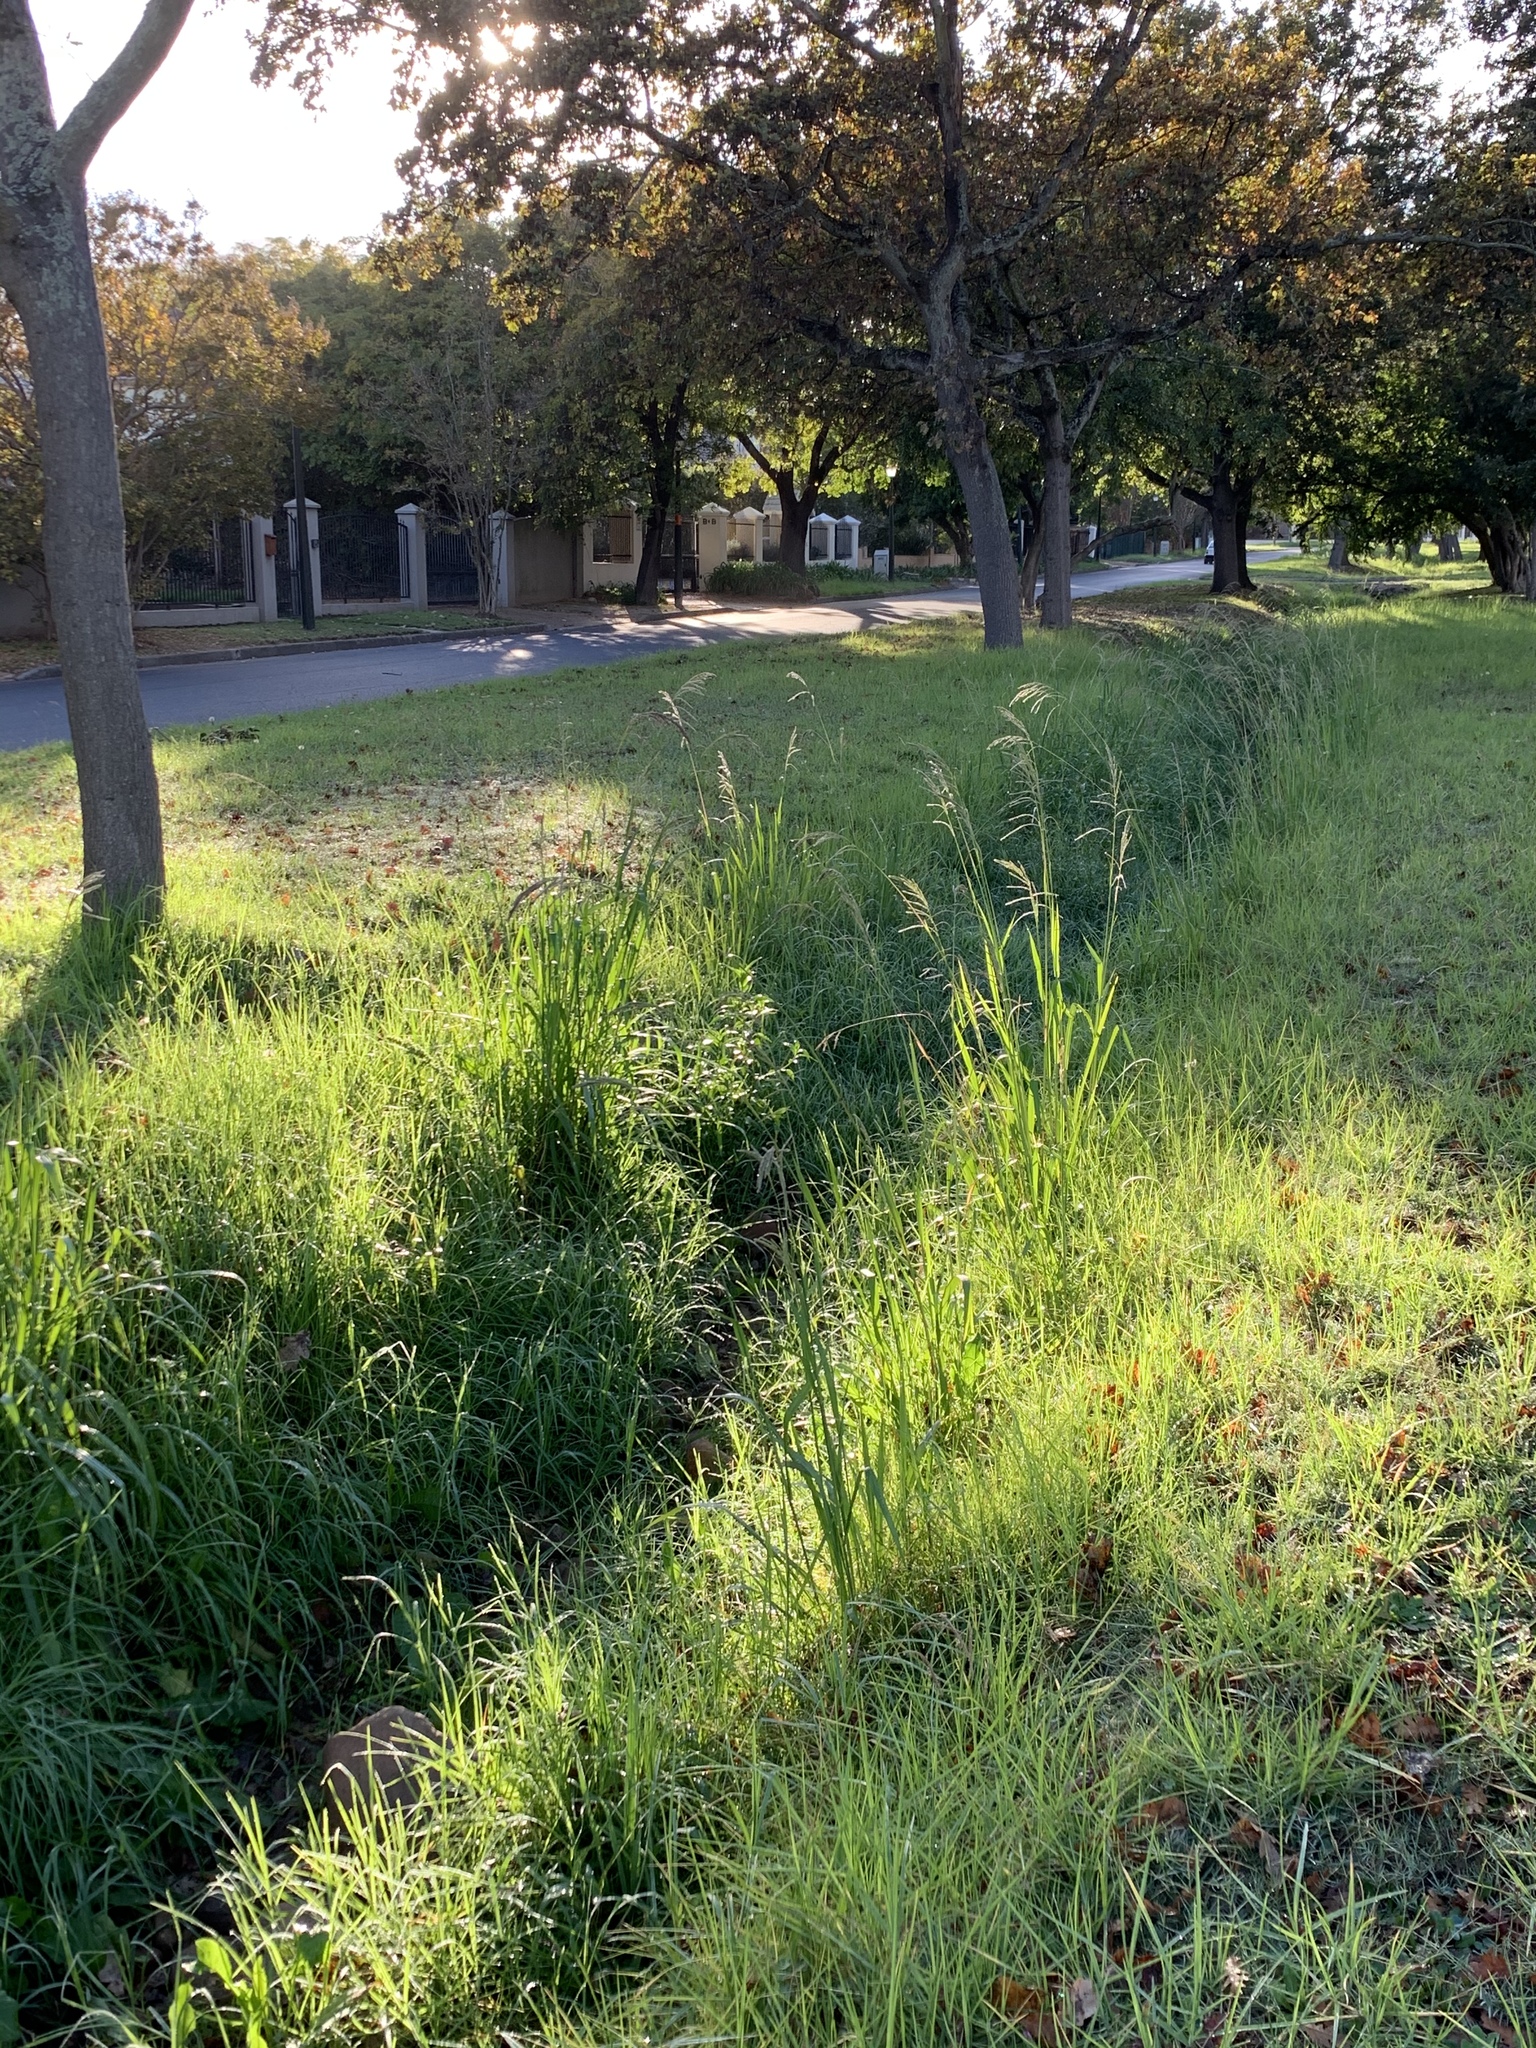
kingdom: Plantae
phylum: Tracheophyta
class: Liliopsida
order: Poales
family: Poaceae
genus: Paspalum
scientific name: Paspalum urvillei
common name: Vasey's grass
